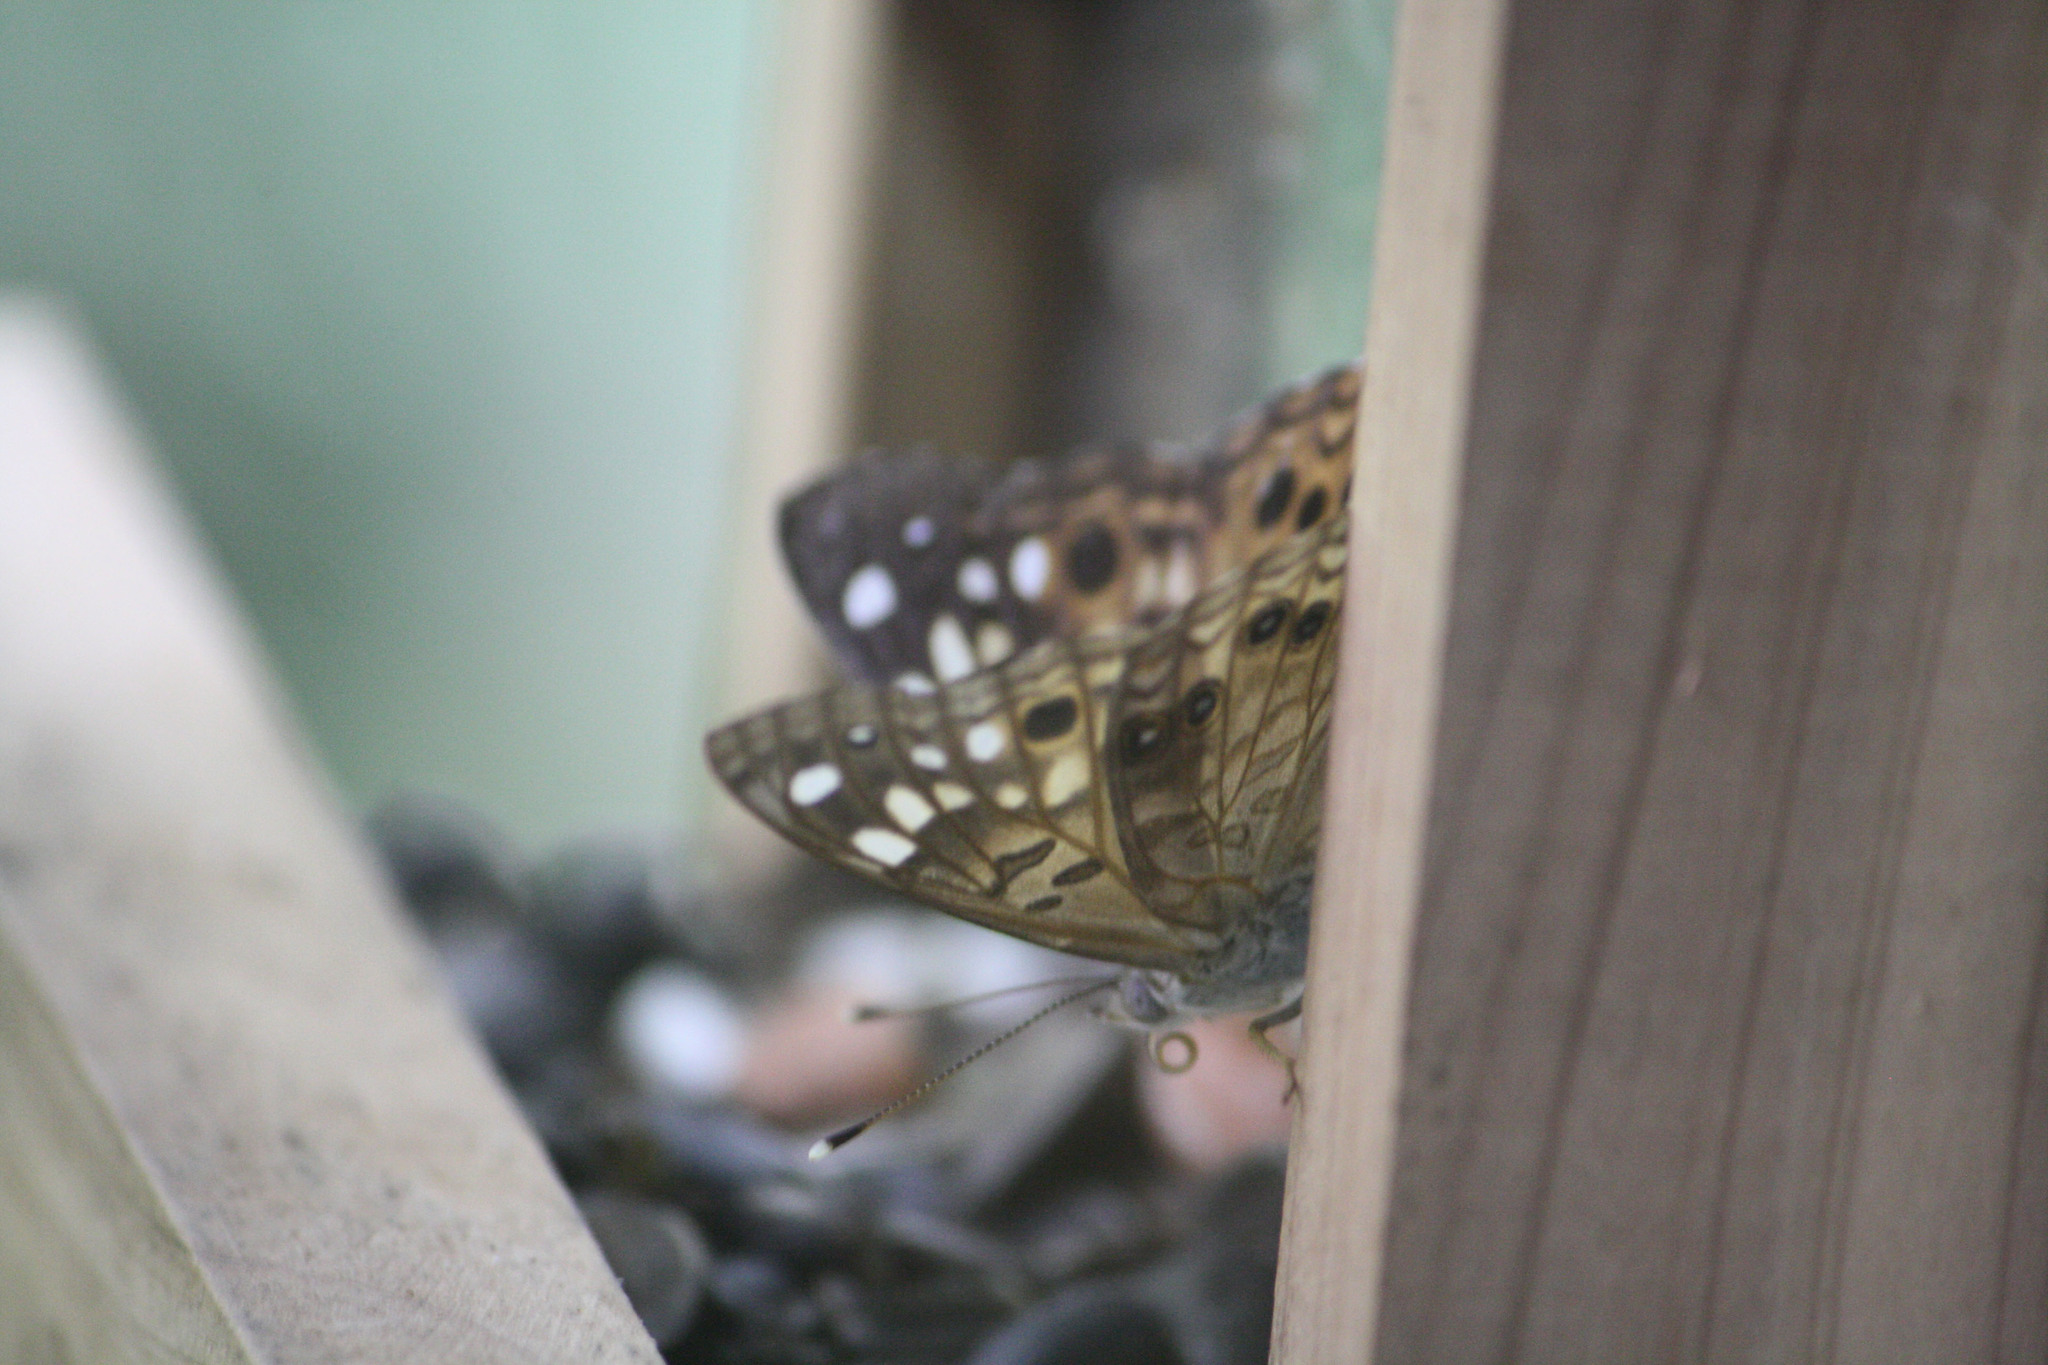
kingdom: Animalia
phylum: Arthropoda
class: Insecta
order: Lepidoptera
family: Nymphalidae
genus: Asterocampa
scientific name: Asterocampa celtis
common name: Hackberry emperor
